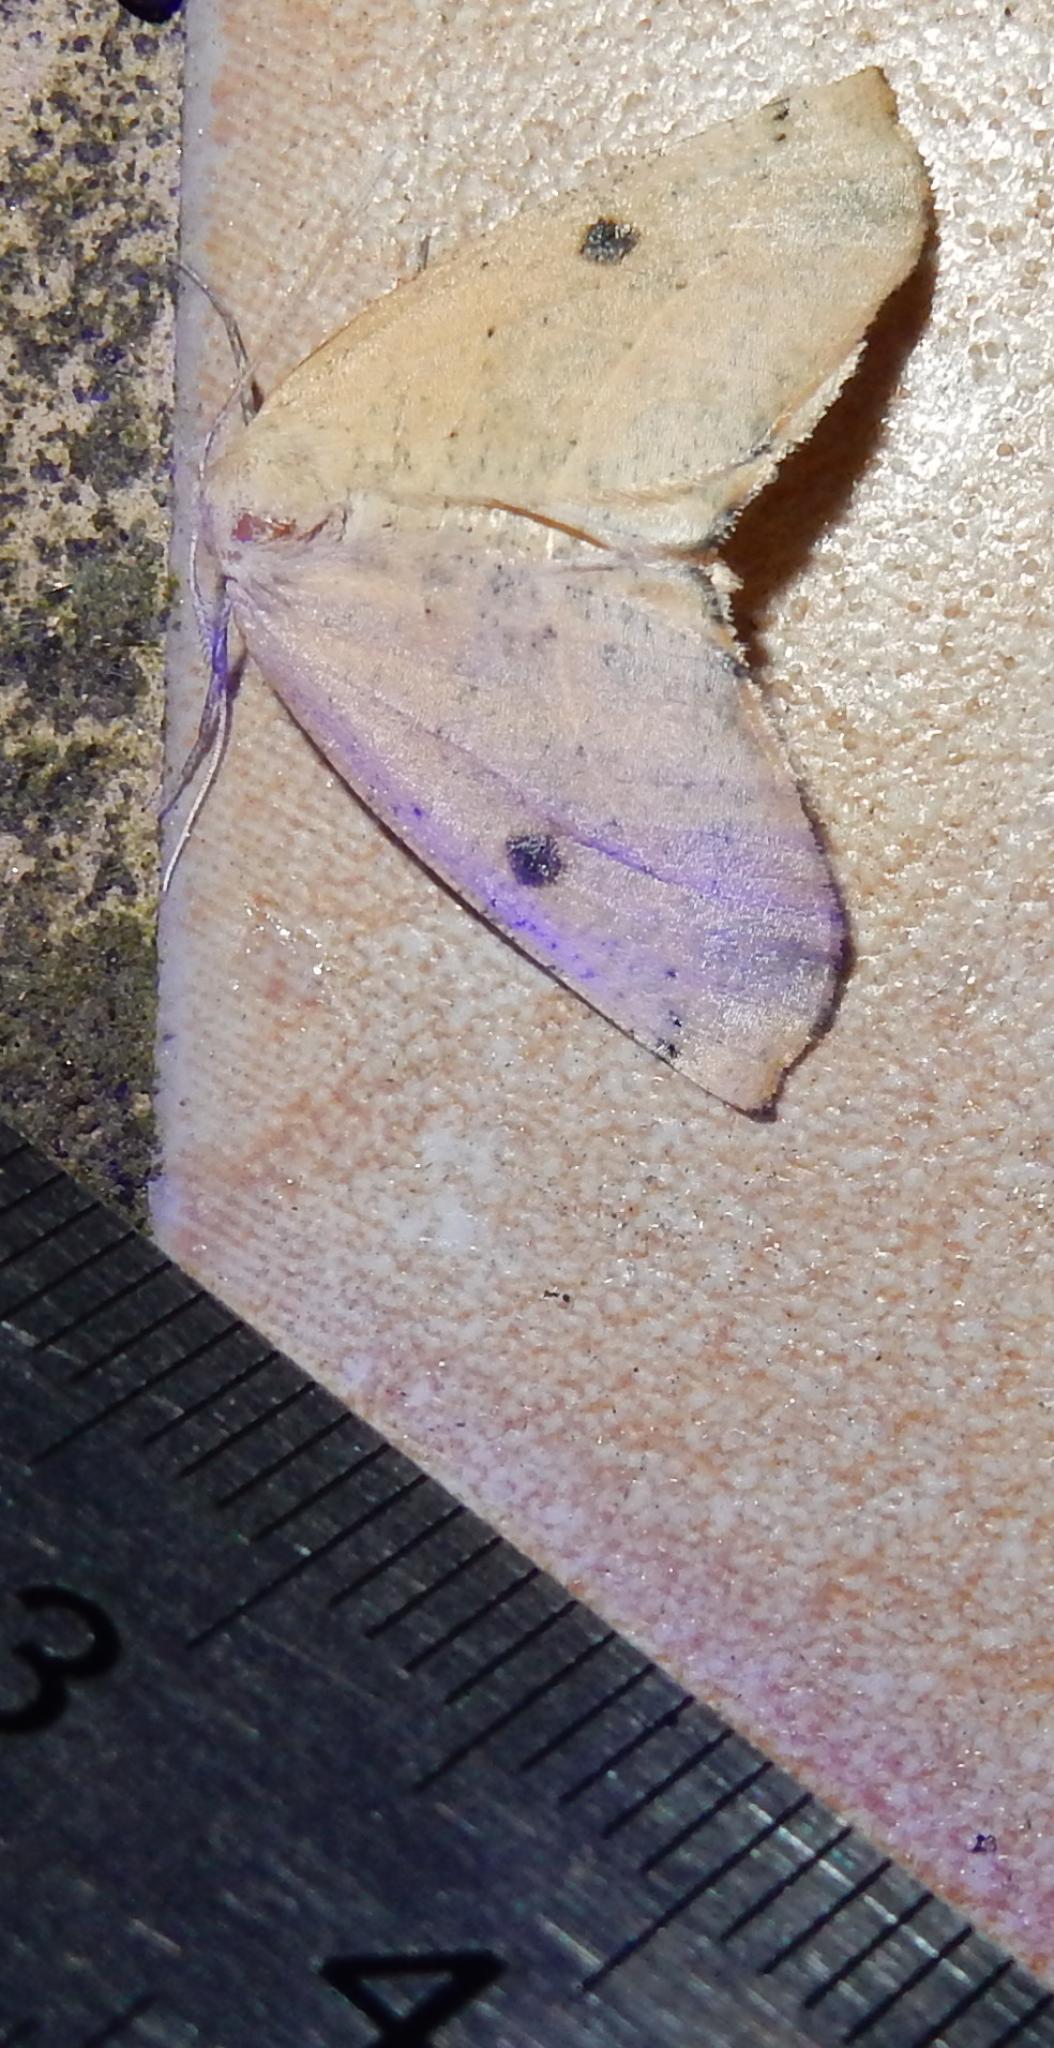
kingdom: Animalia
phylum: Arthropoda
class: Insecta
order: Lepidoptera
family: Geometridae
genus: Sicyodes
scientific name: Sicyodes ocellata
